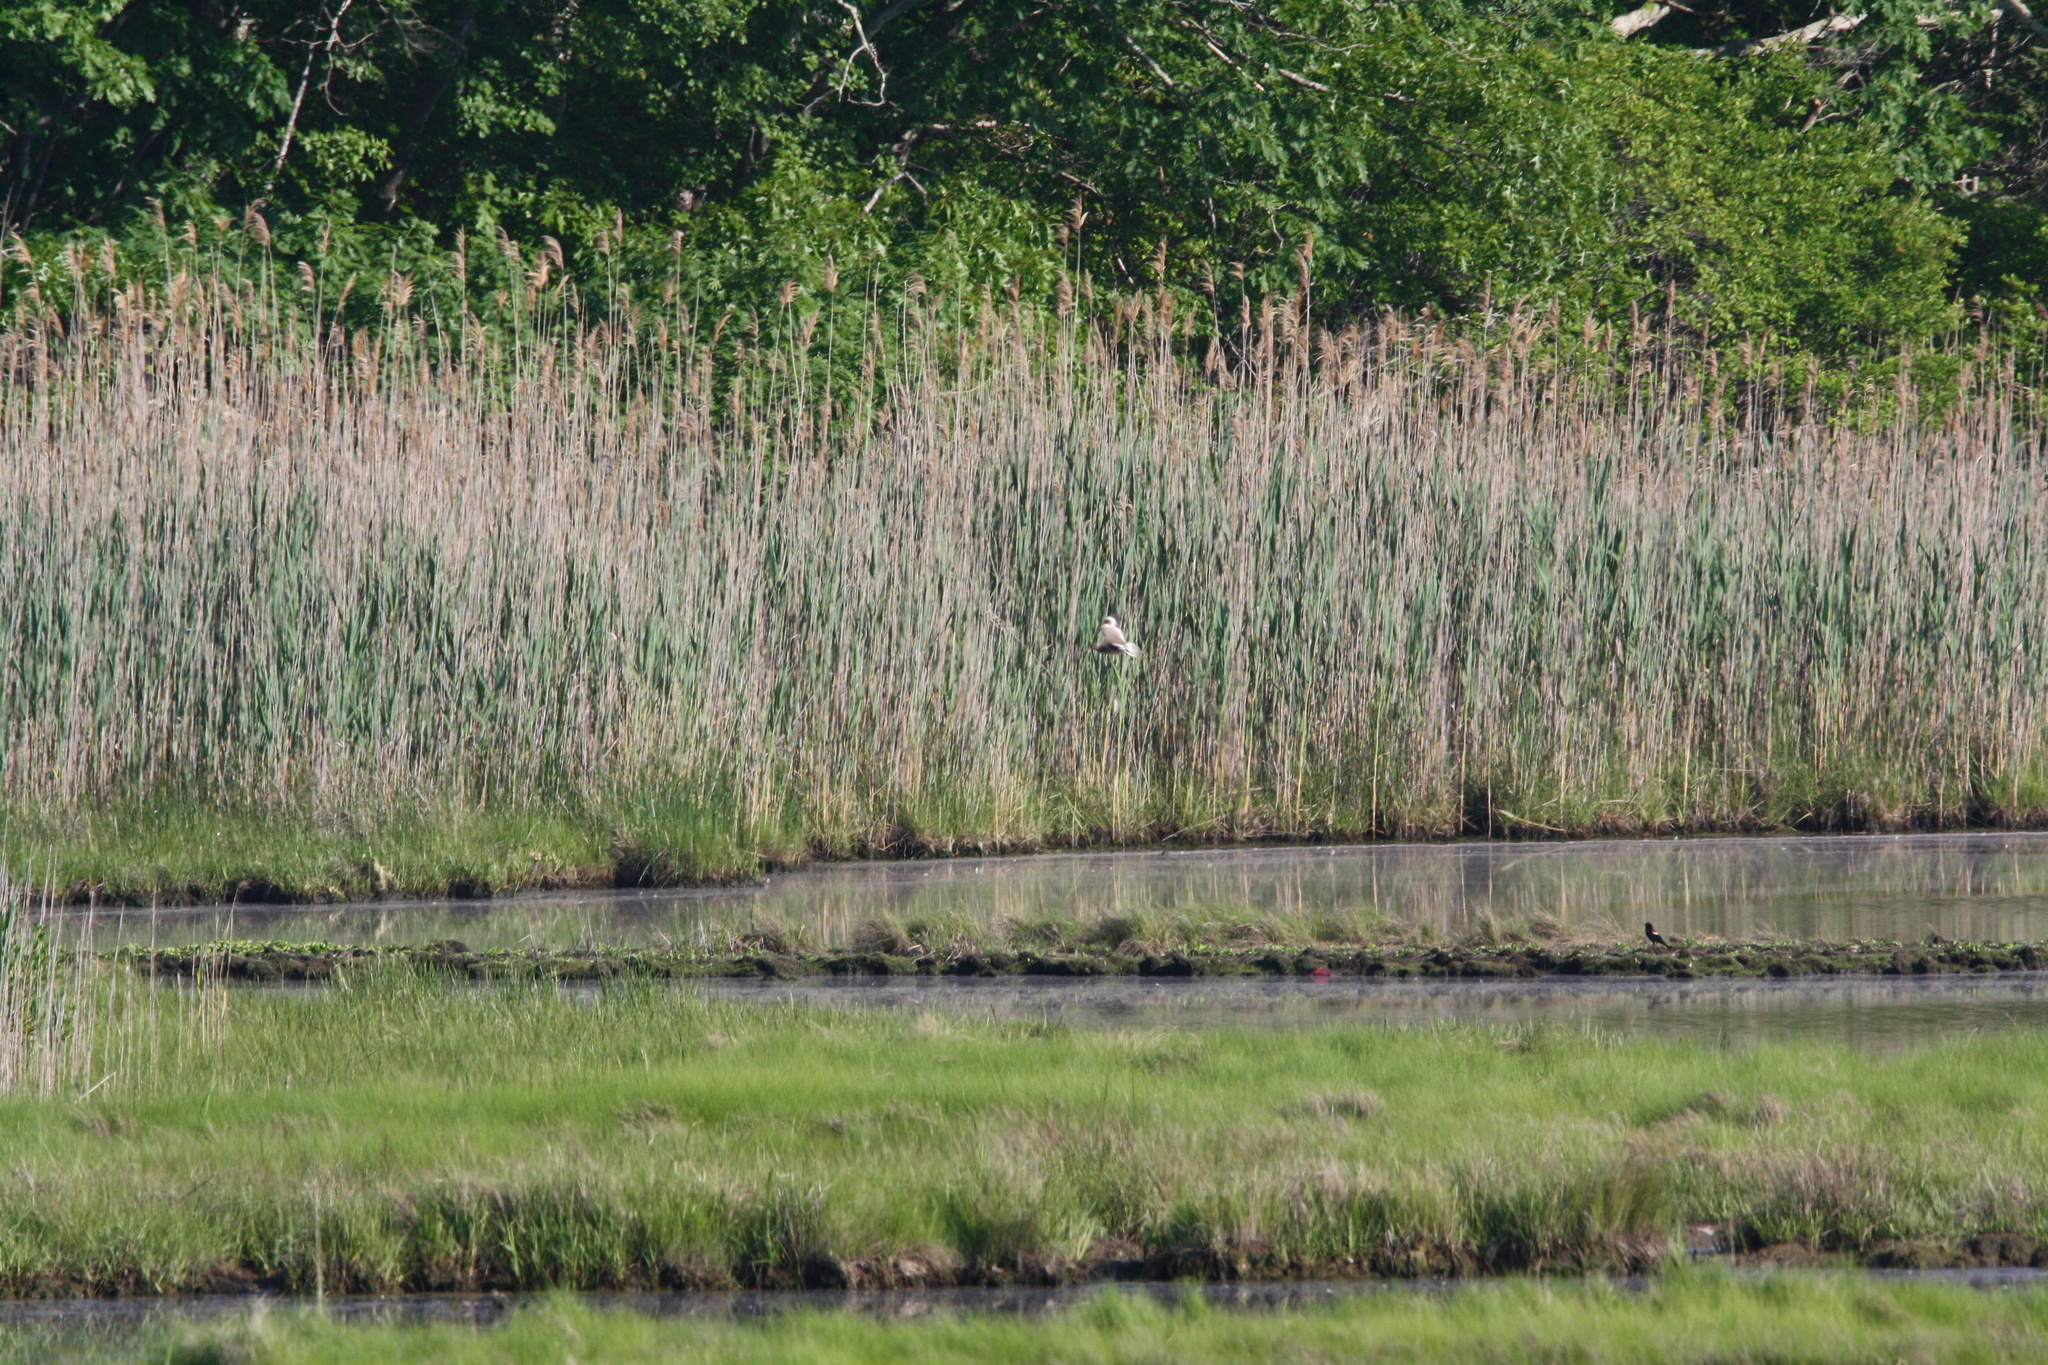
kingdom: Animalia
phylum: Chordata
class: Aves
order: Charadriiformes
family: Scolopacidae
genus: Tringa
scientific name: Tringa semipalmata
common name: Willet
